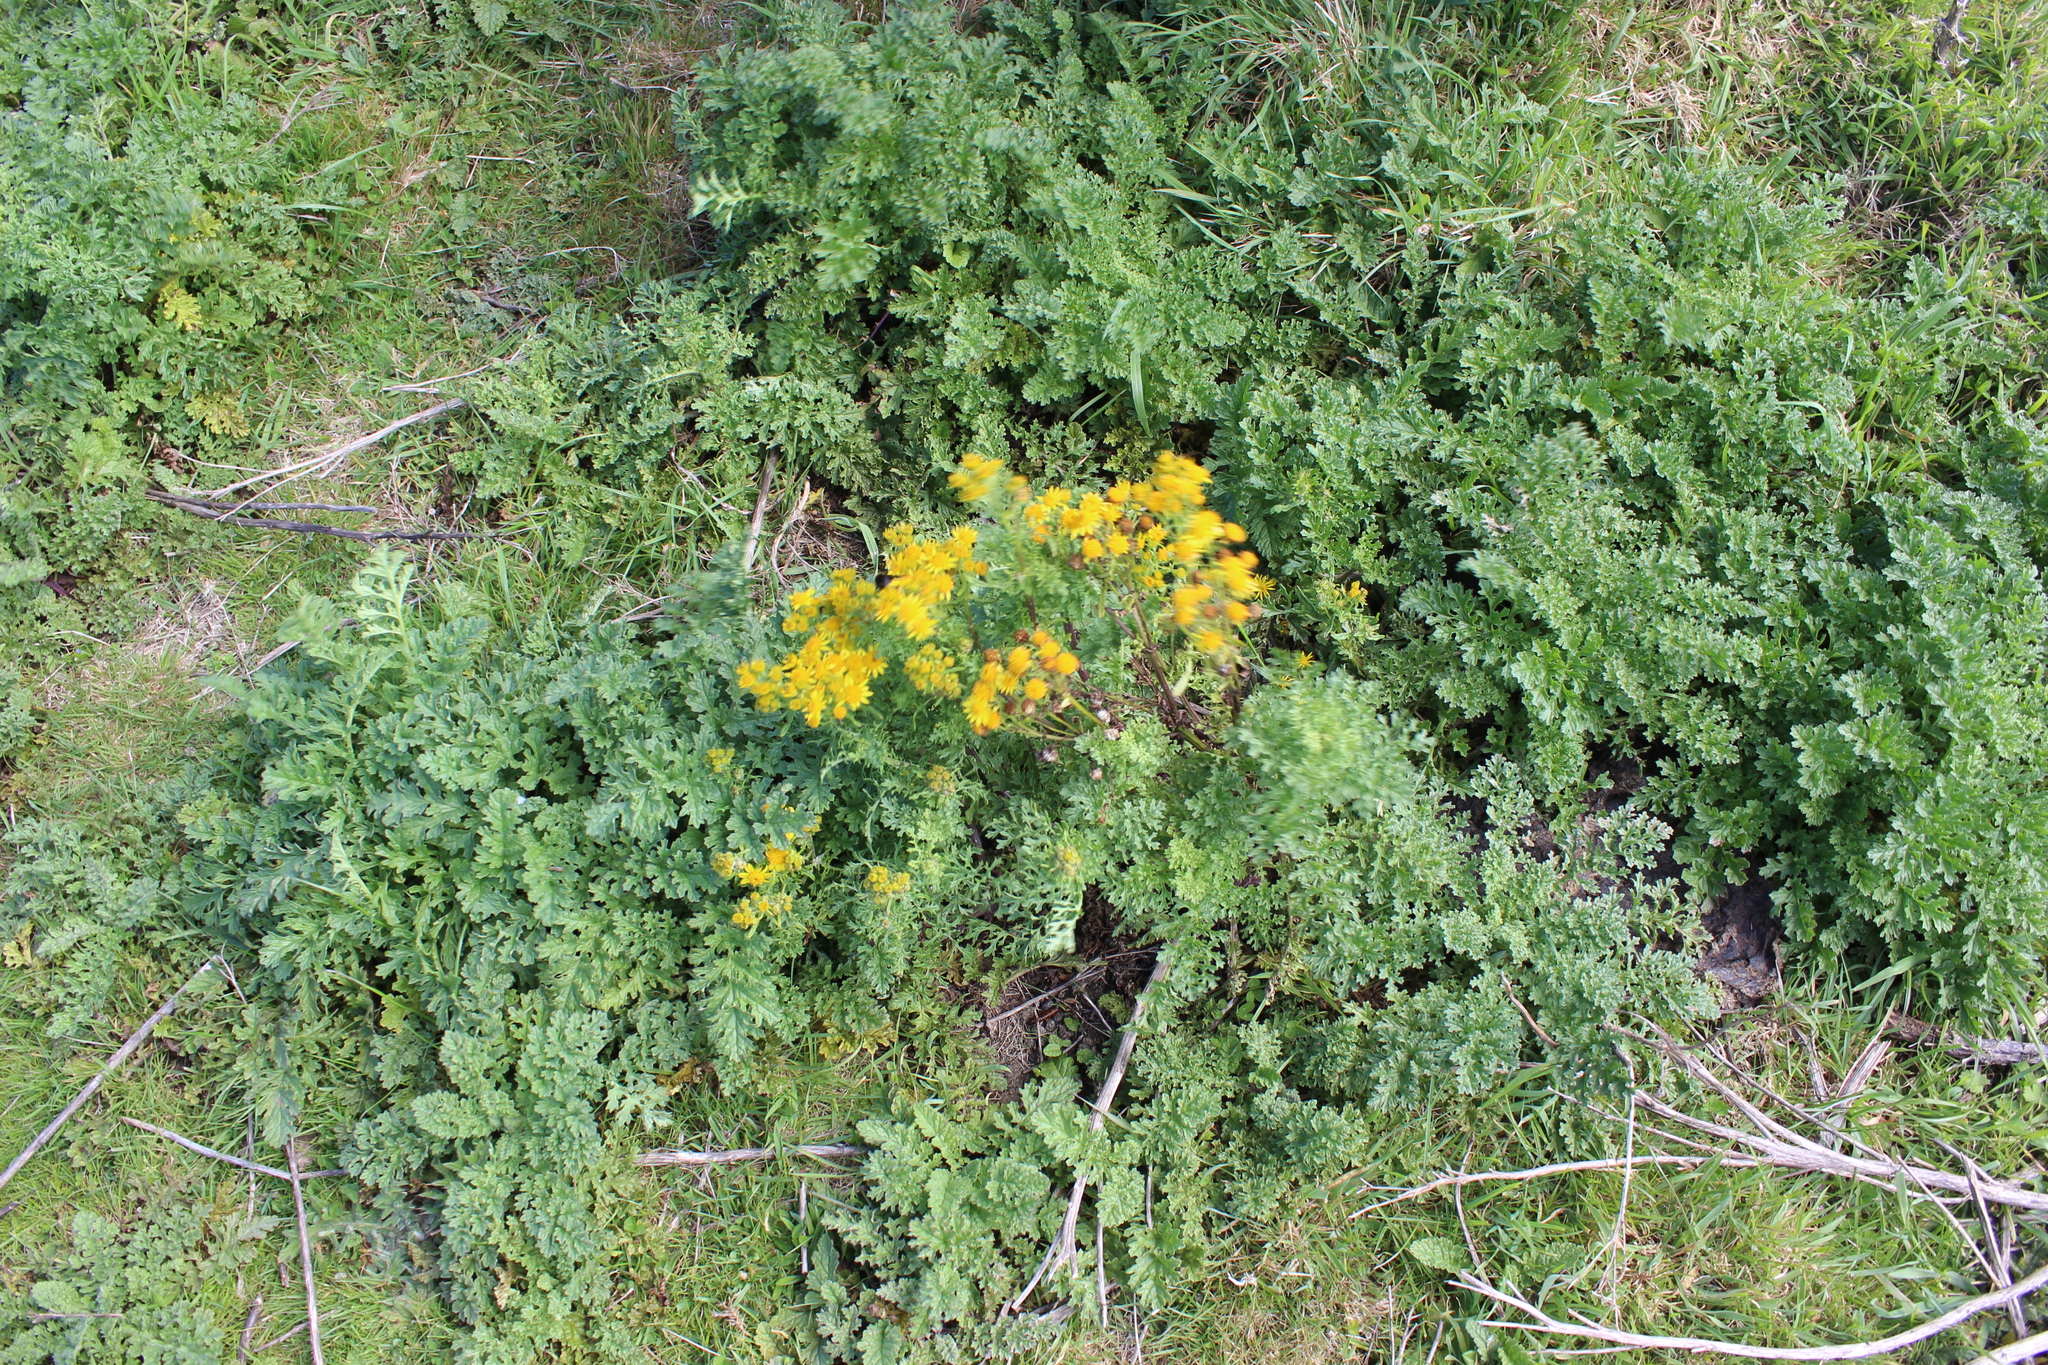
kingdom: Plantae
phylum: Tracheophyta
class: Magnoliopsida
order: Asterales
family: Asteraceae
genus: Jacobaea
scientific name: Jacobaea vulgaris
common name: Stinking willie
